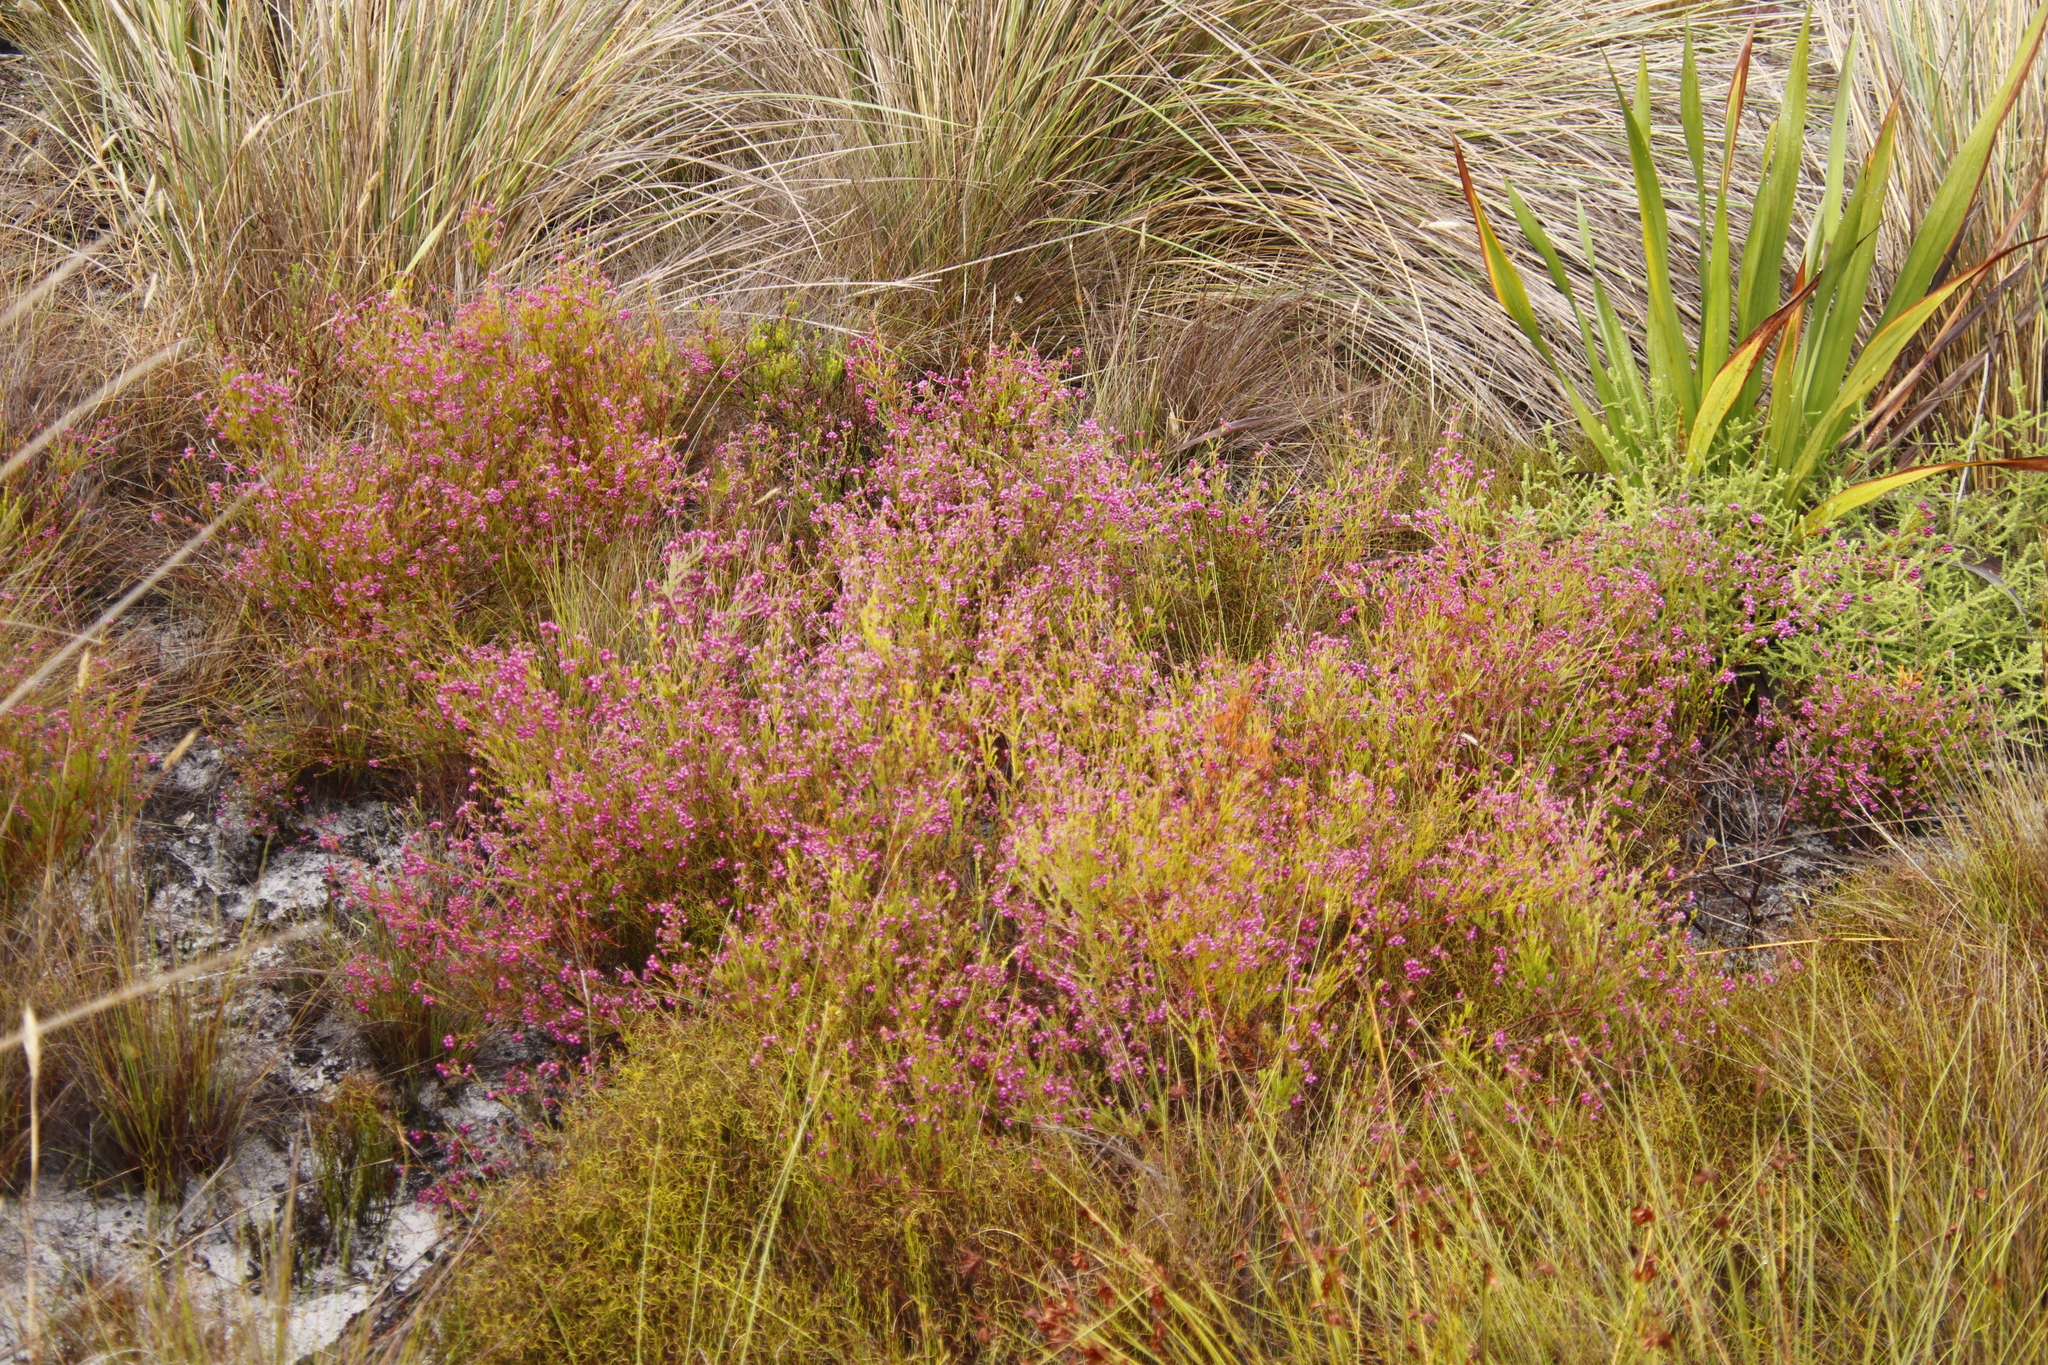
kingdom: Plantae
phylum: Tracheophyta
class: Magnoliopsida
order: Ericales
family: Ericaceae
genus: Erica
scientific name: Erica multumbellifera
